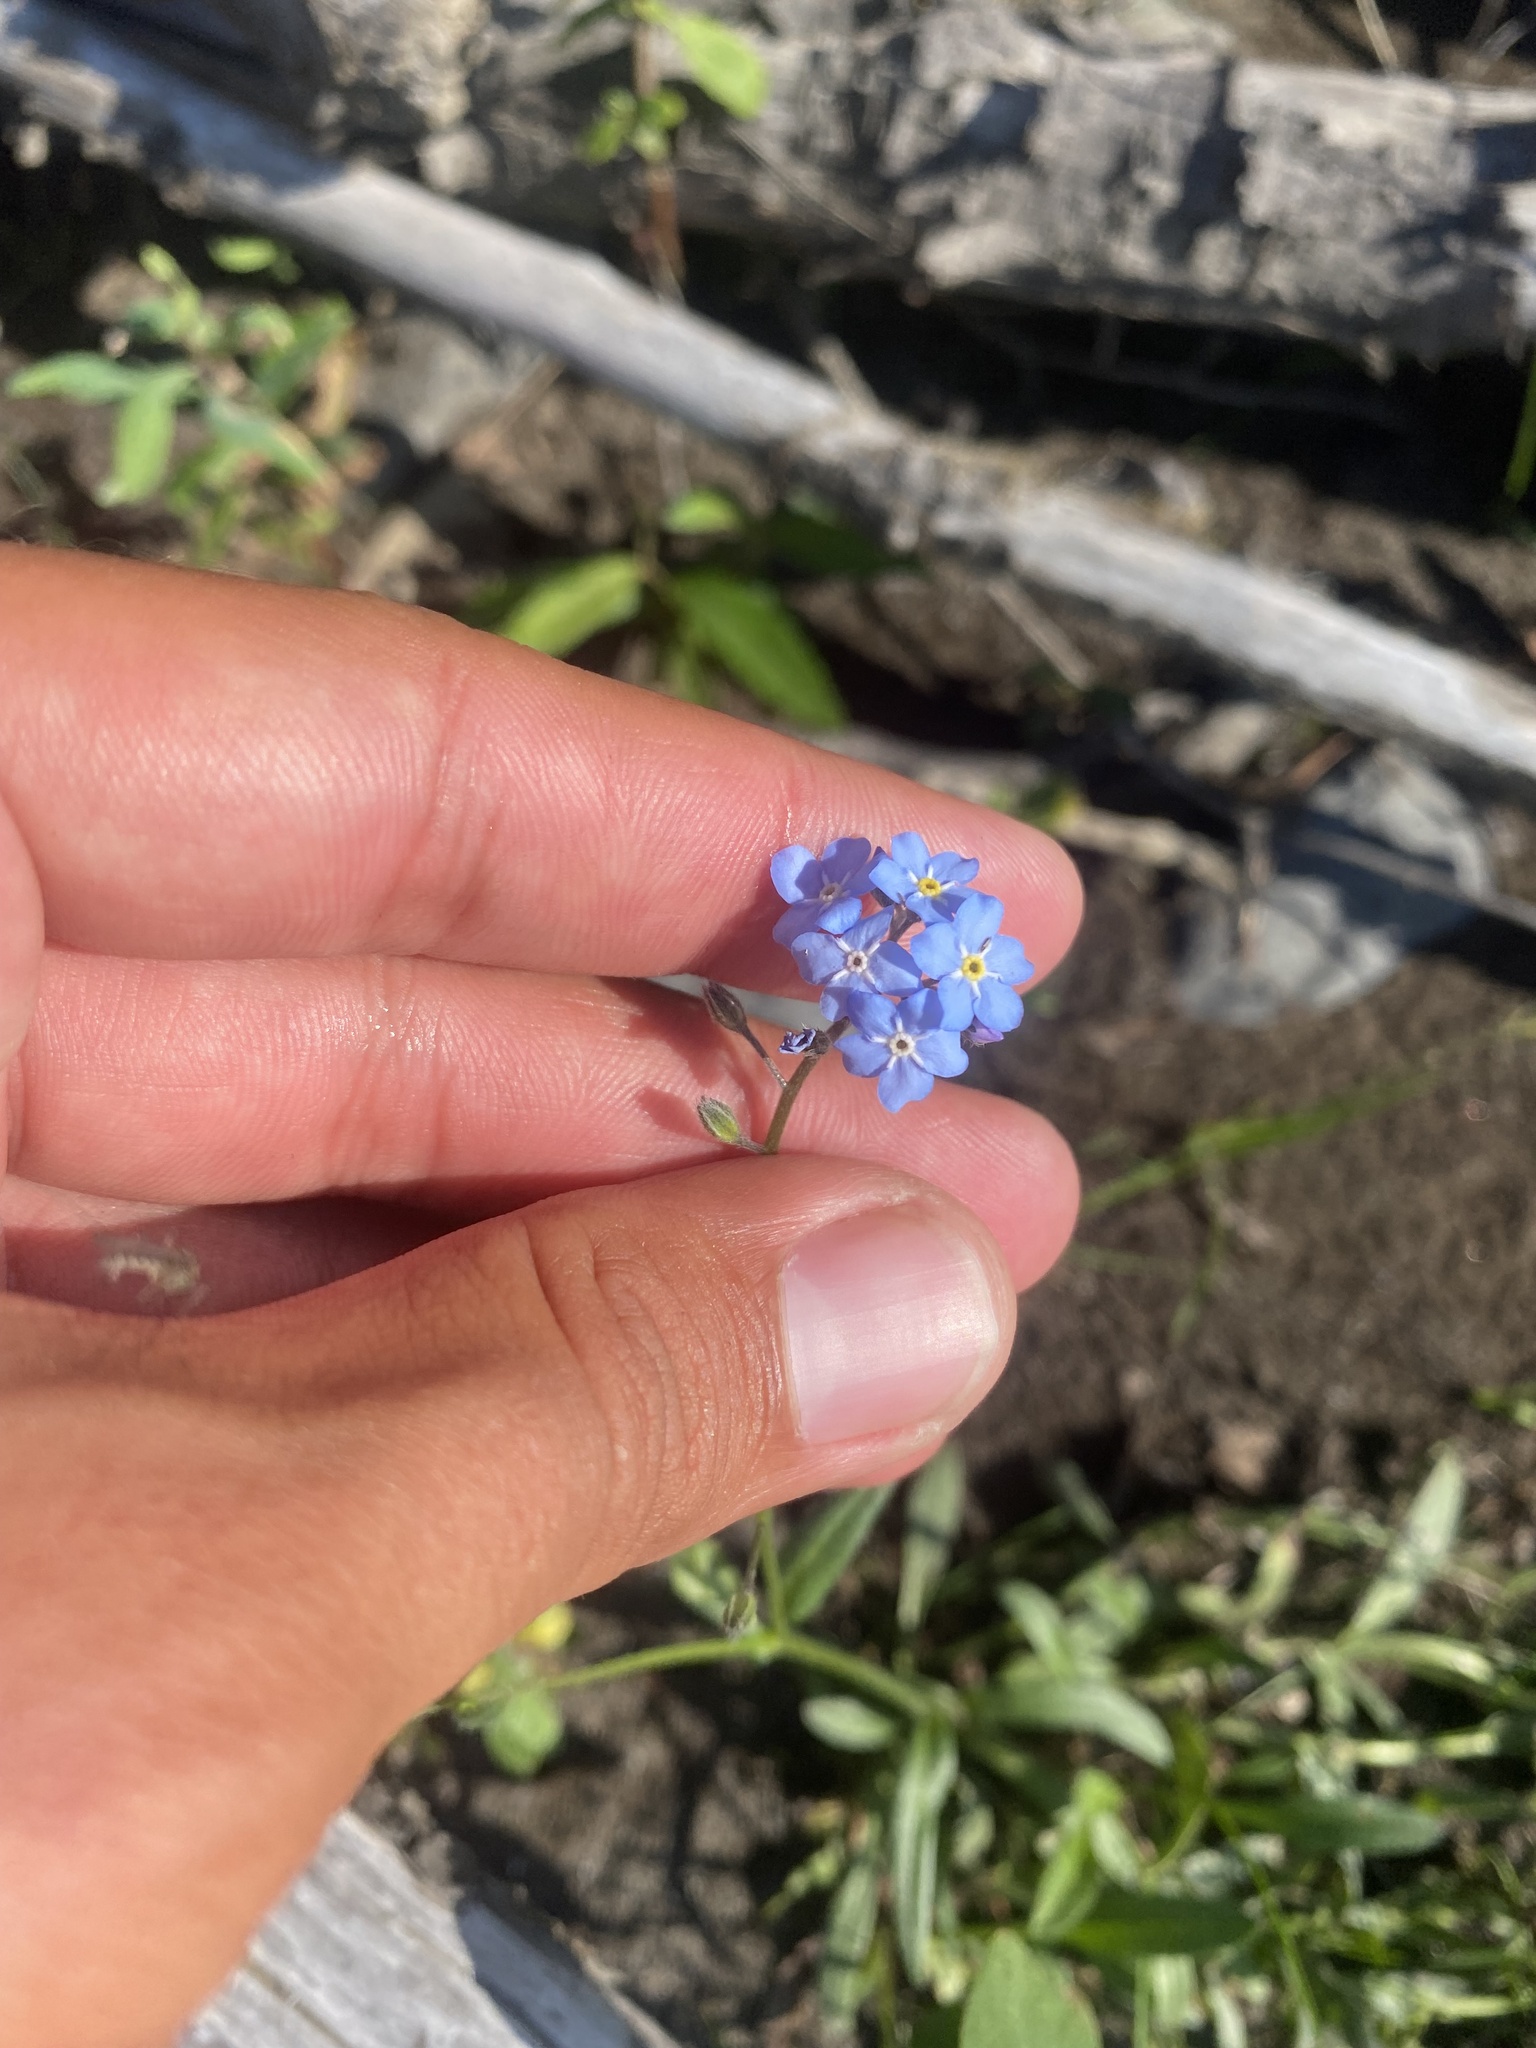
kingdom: Plantae
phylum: Tracheophyta
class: Magnoliopsida
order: Boraginales
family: Boraginaceae
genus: Myosotis
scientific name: Myosotis asiatica
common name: Asian forget-me-not
